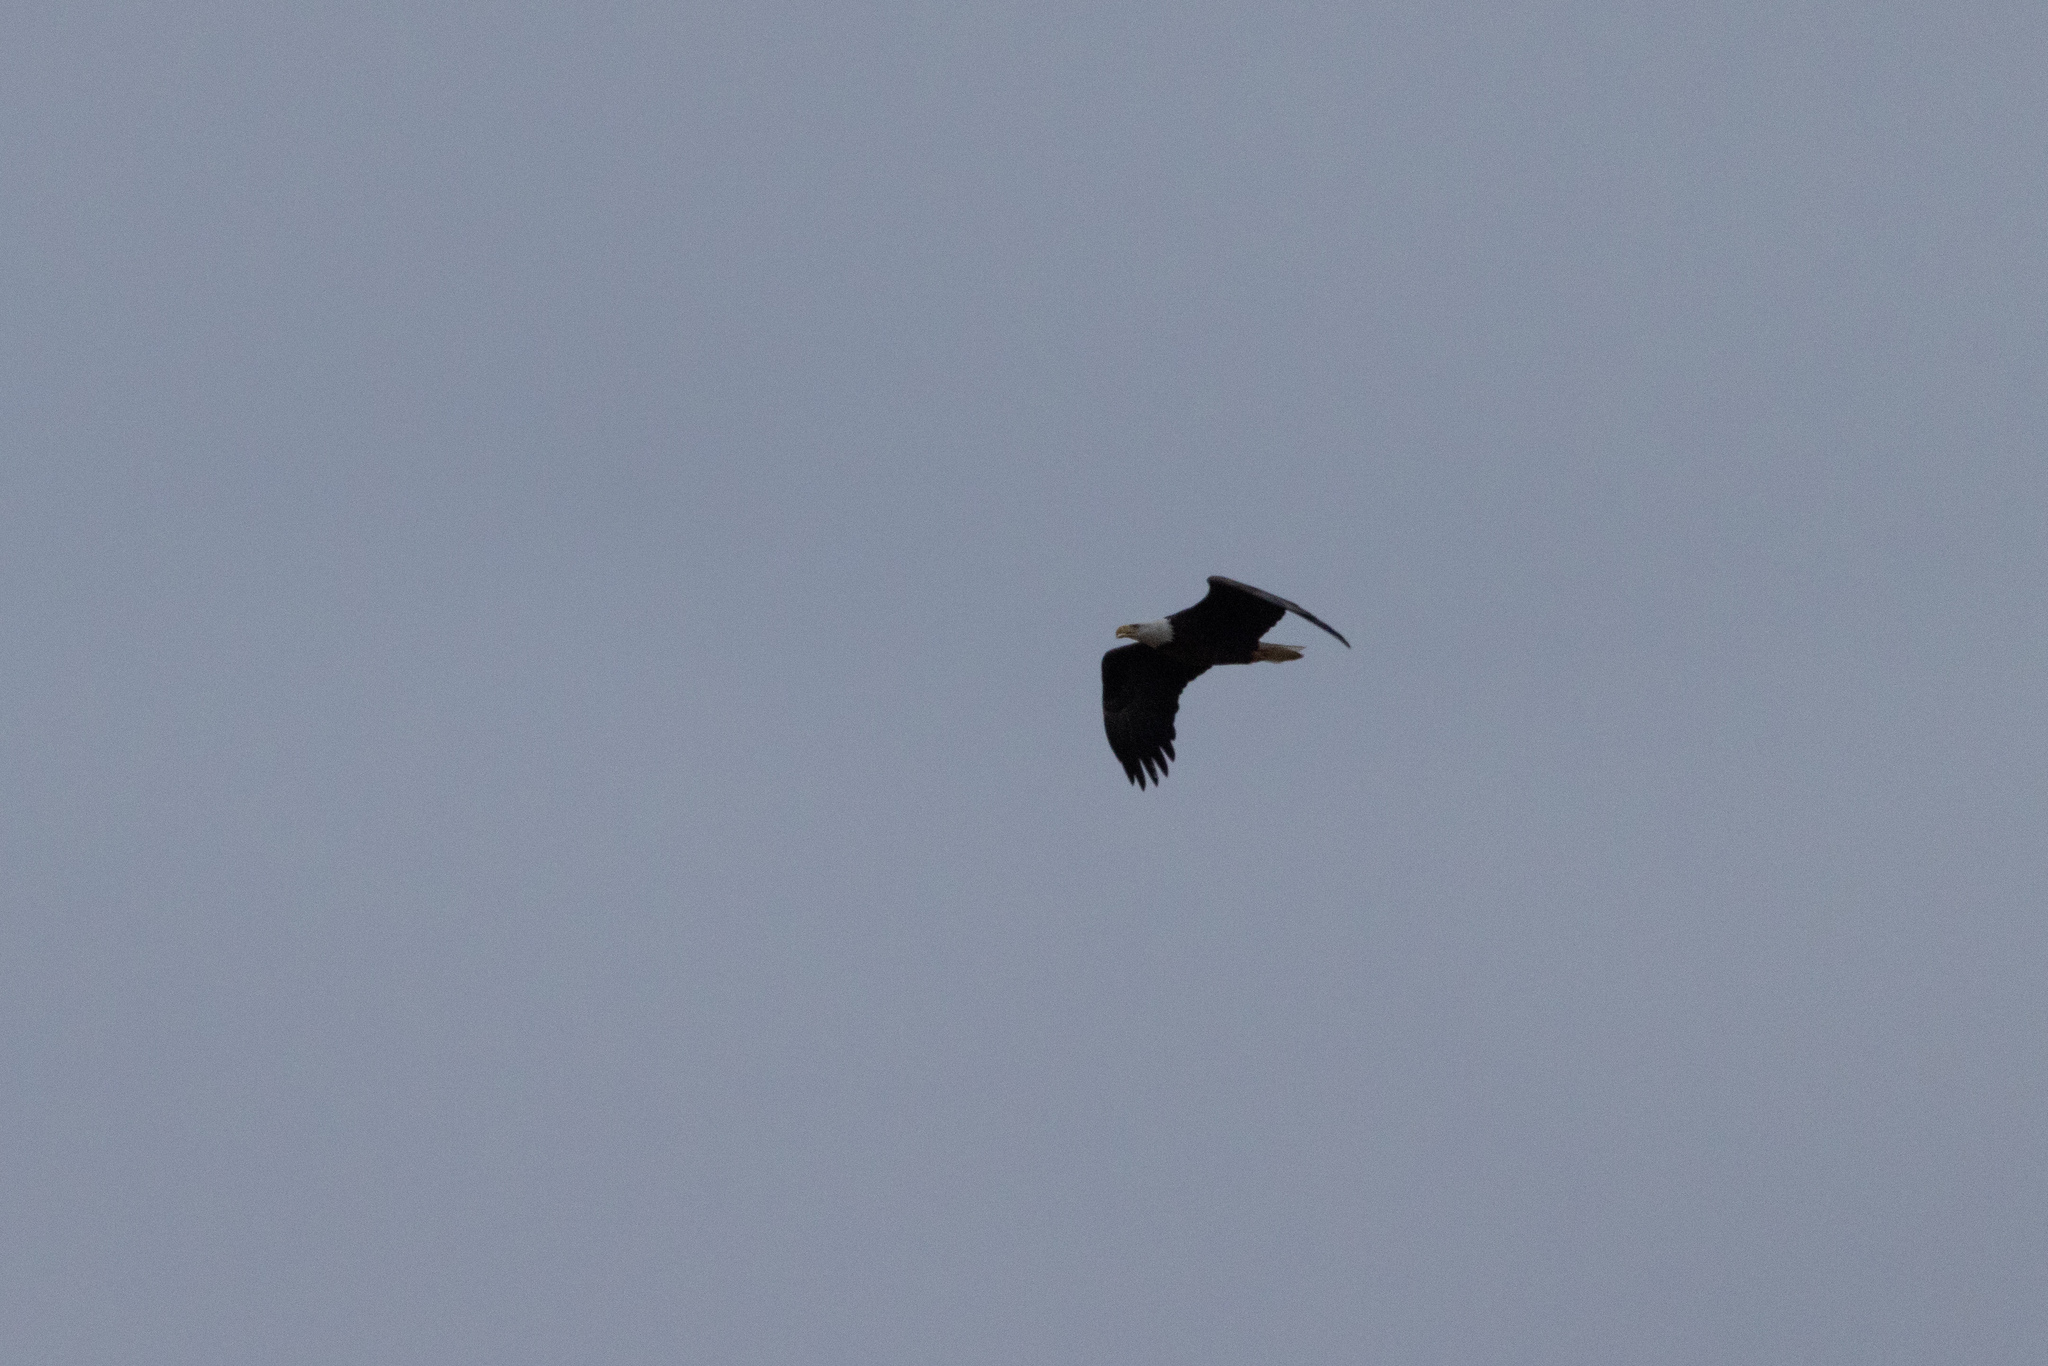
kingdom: Animalia
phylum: Chordata
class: Aves
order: Accipitriformes
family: Accipitridae
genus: Haliaeetus
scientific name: Haliaeetus leucocephalus
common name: Bald eagle
